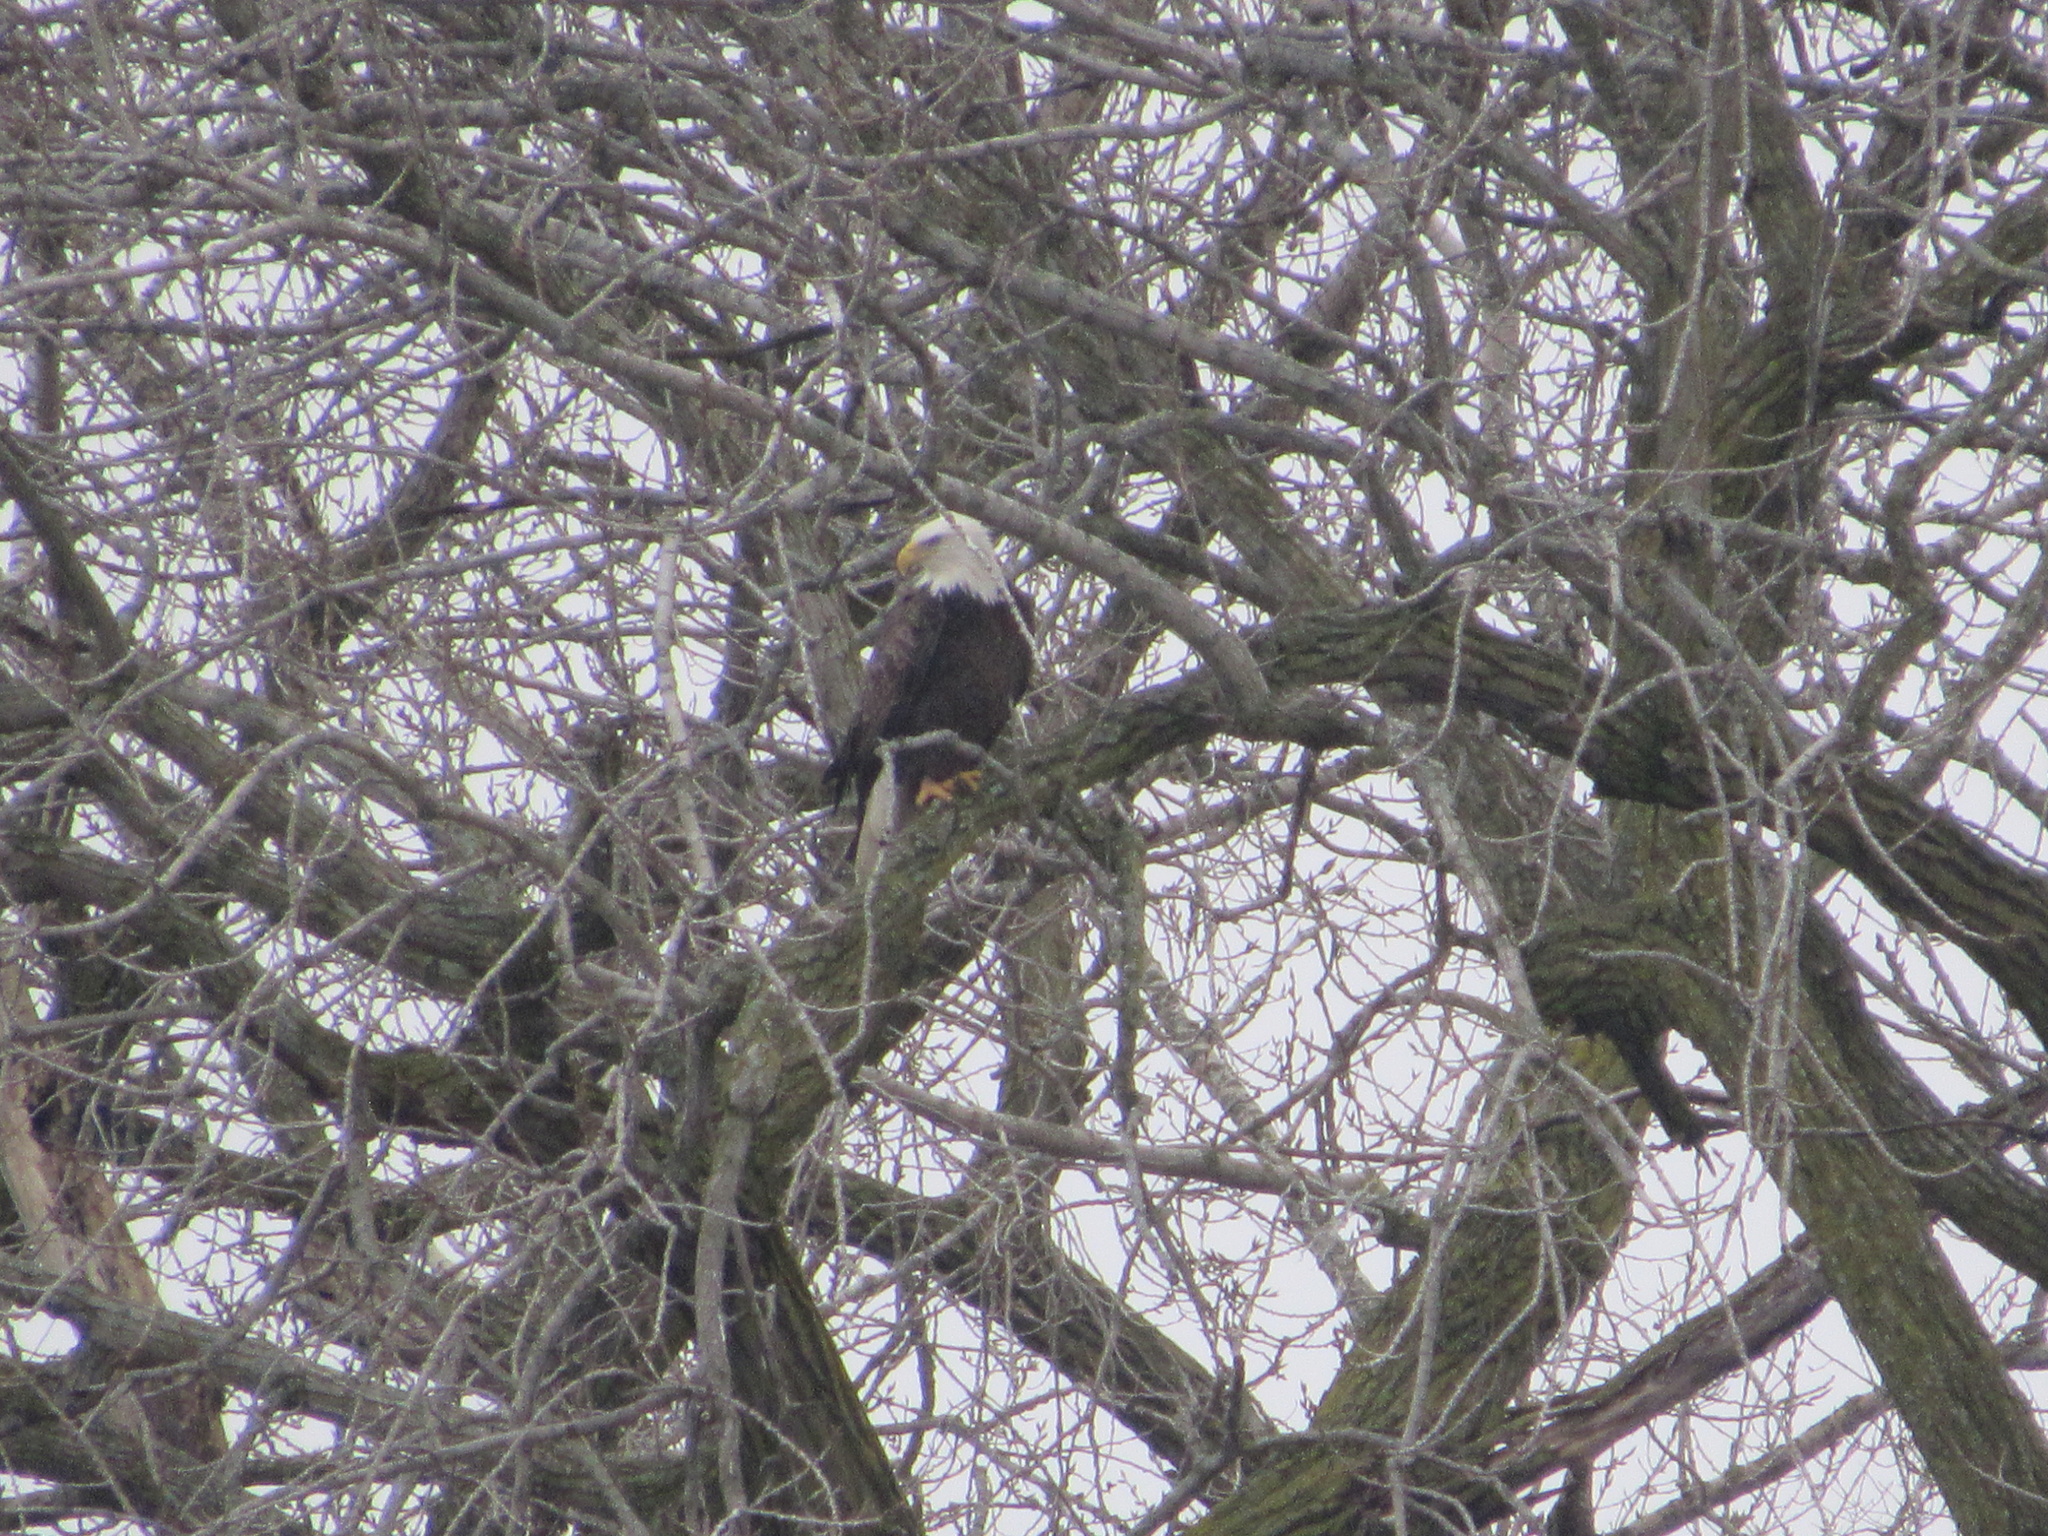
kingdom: Animalia
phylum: Chordata
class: Aves
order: Accipitriformes
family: Accipitridae
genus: Haliaeetus
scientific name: Haliaeetus leucocephalus
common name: Bald eagle
